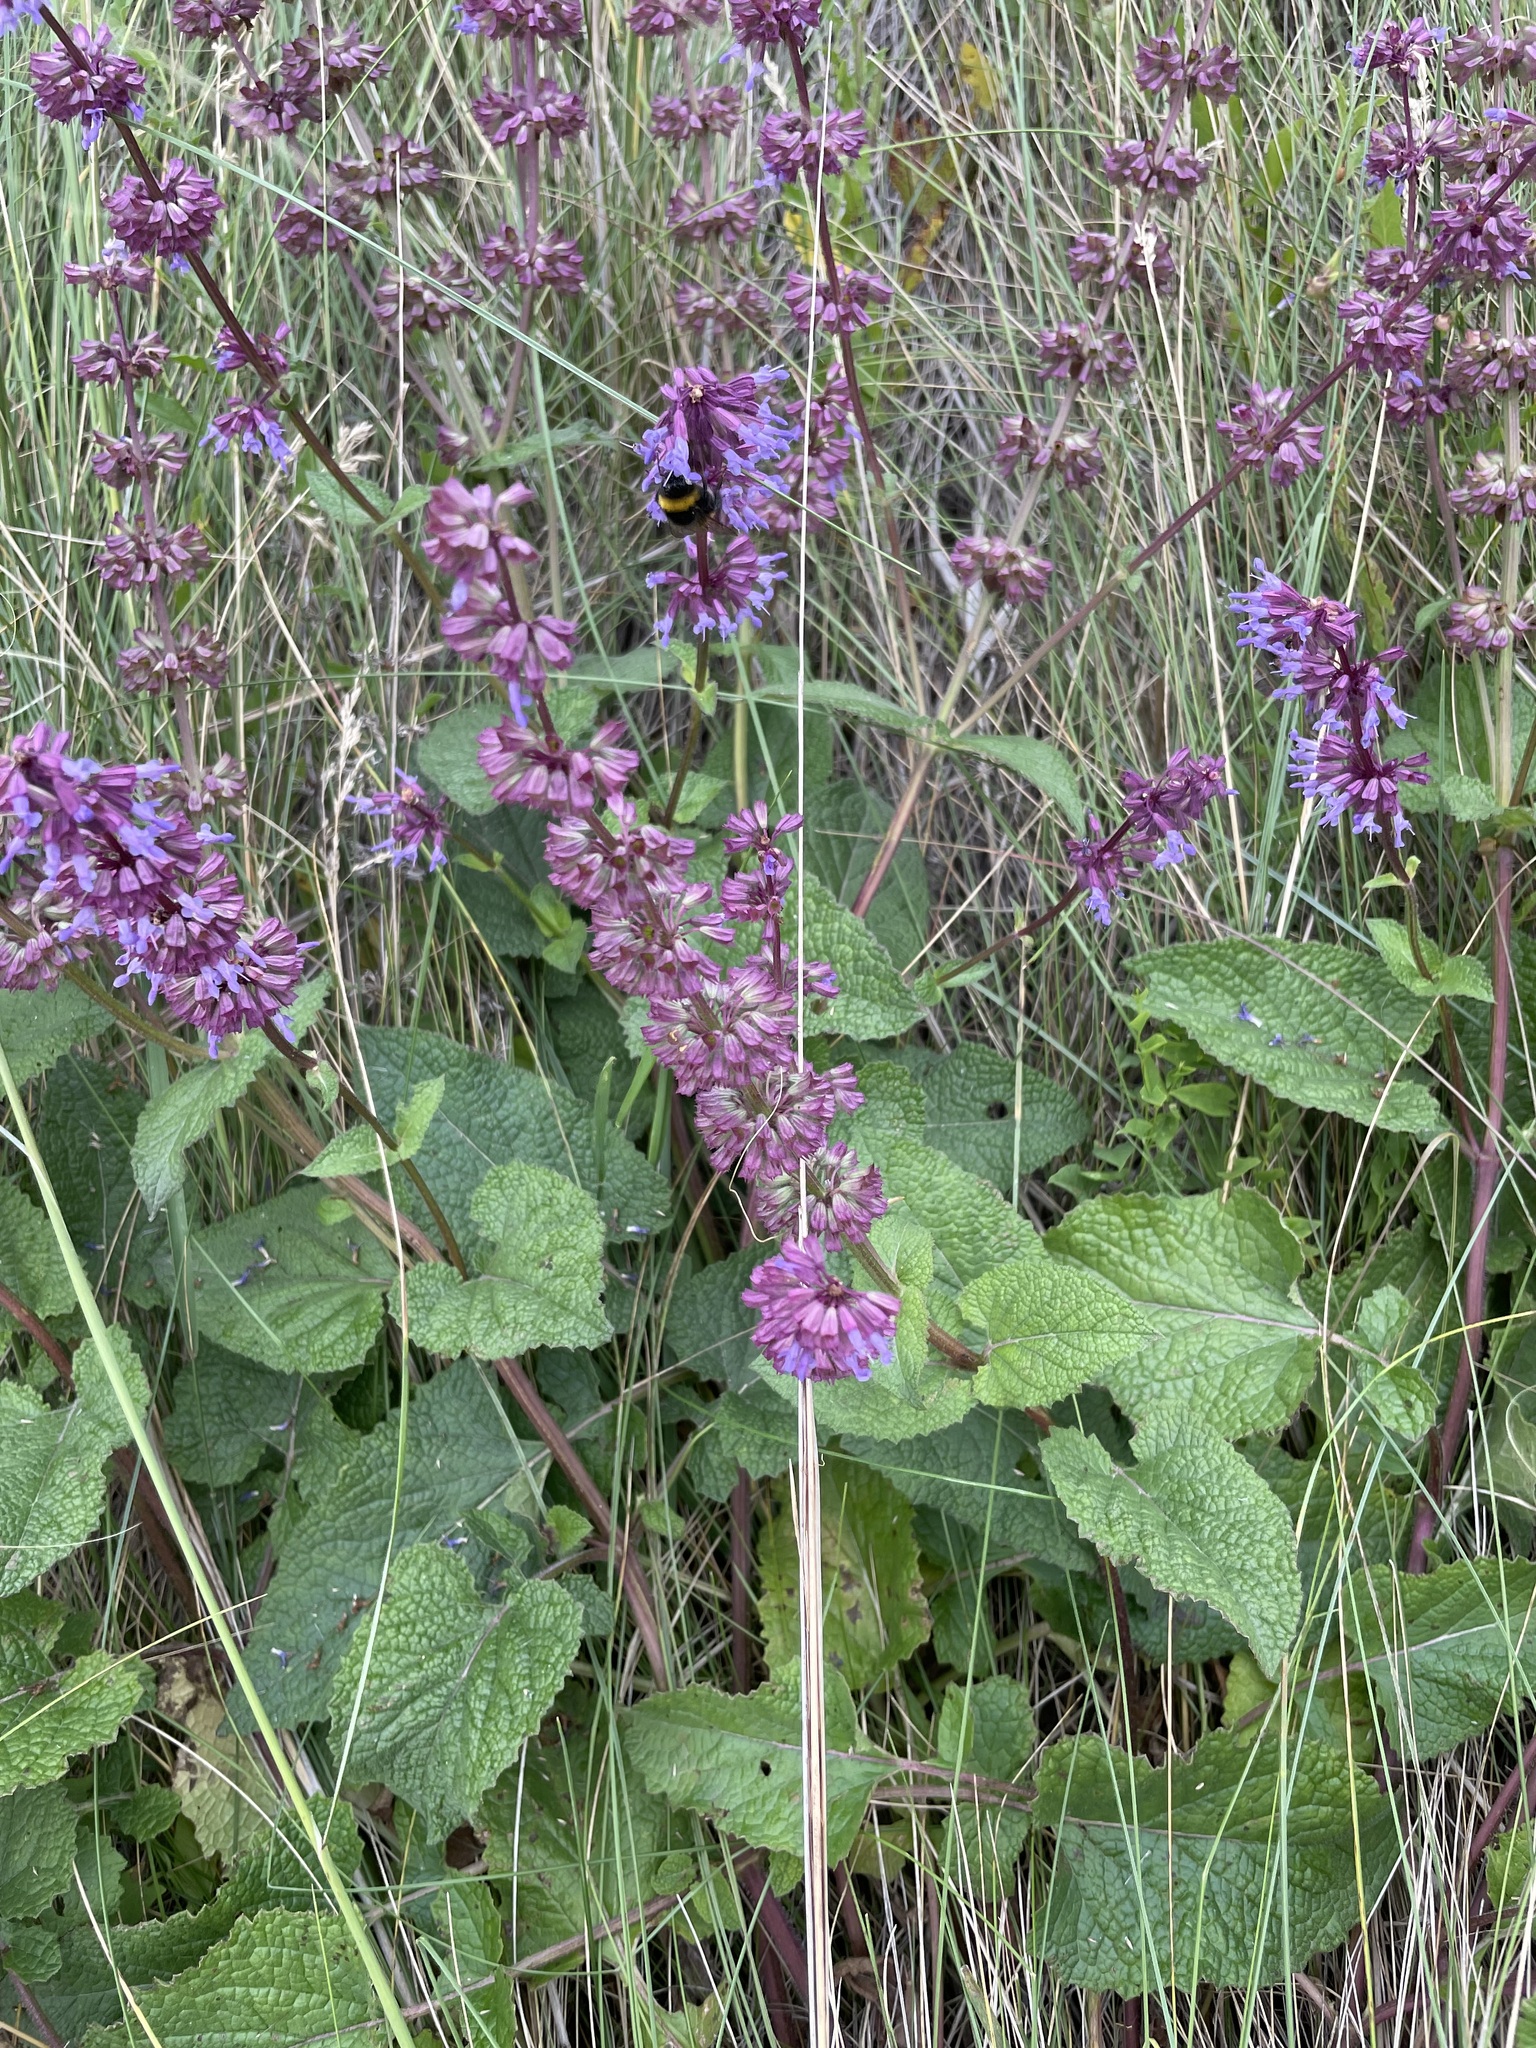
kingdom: Plantae
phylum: Tracheophyta
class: Magnoliopsida
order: Lamiales
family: Lamiaceae
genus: Salvia
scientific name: Salvia verticillata
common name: Whorled clary
